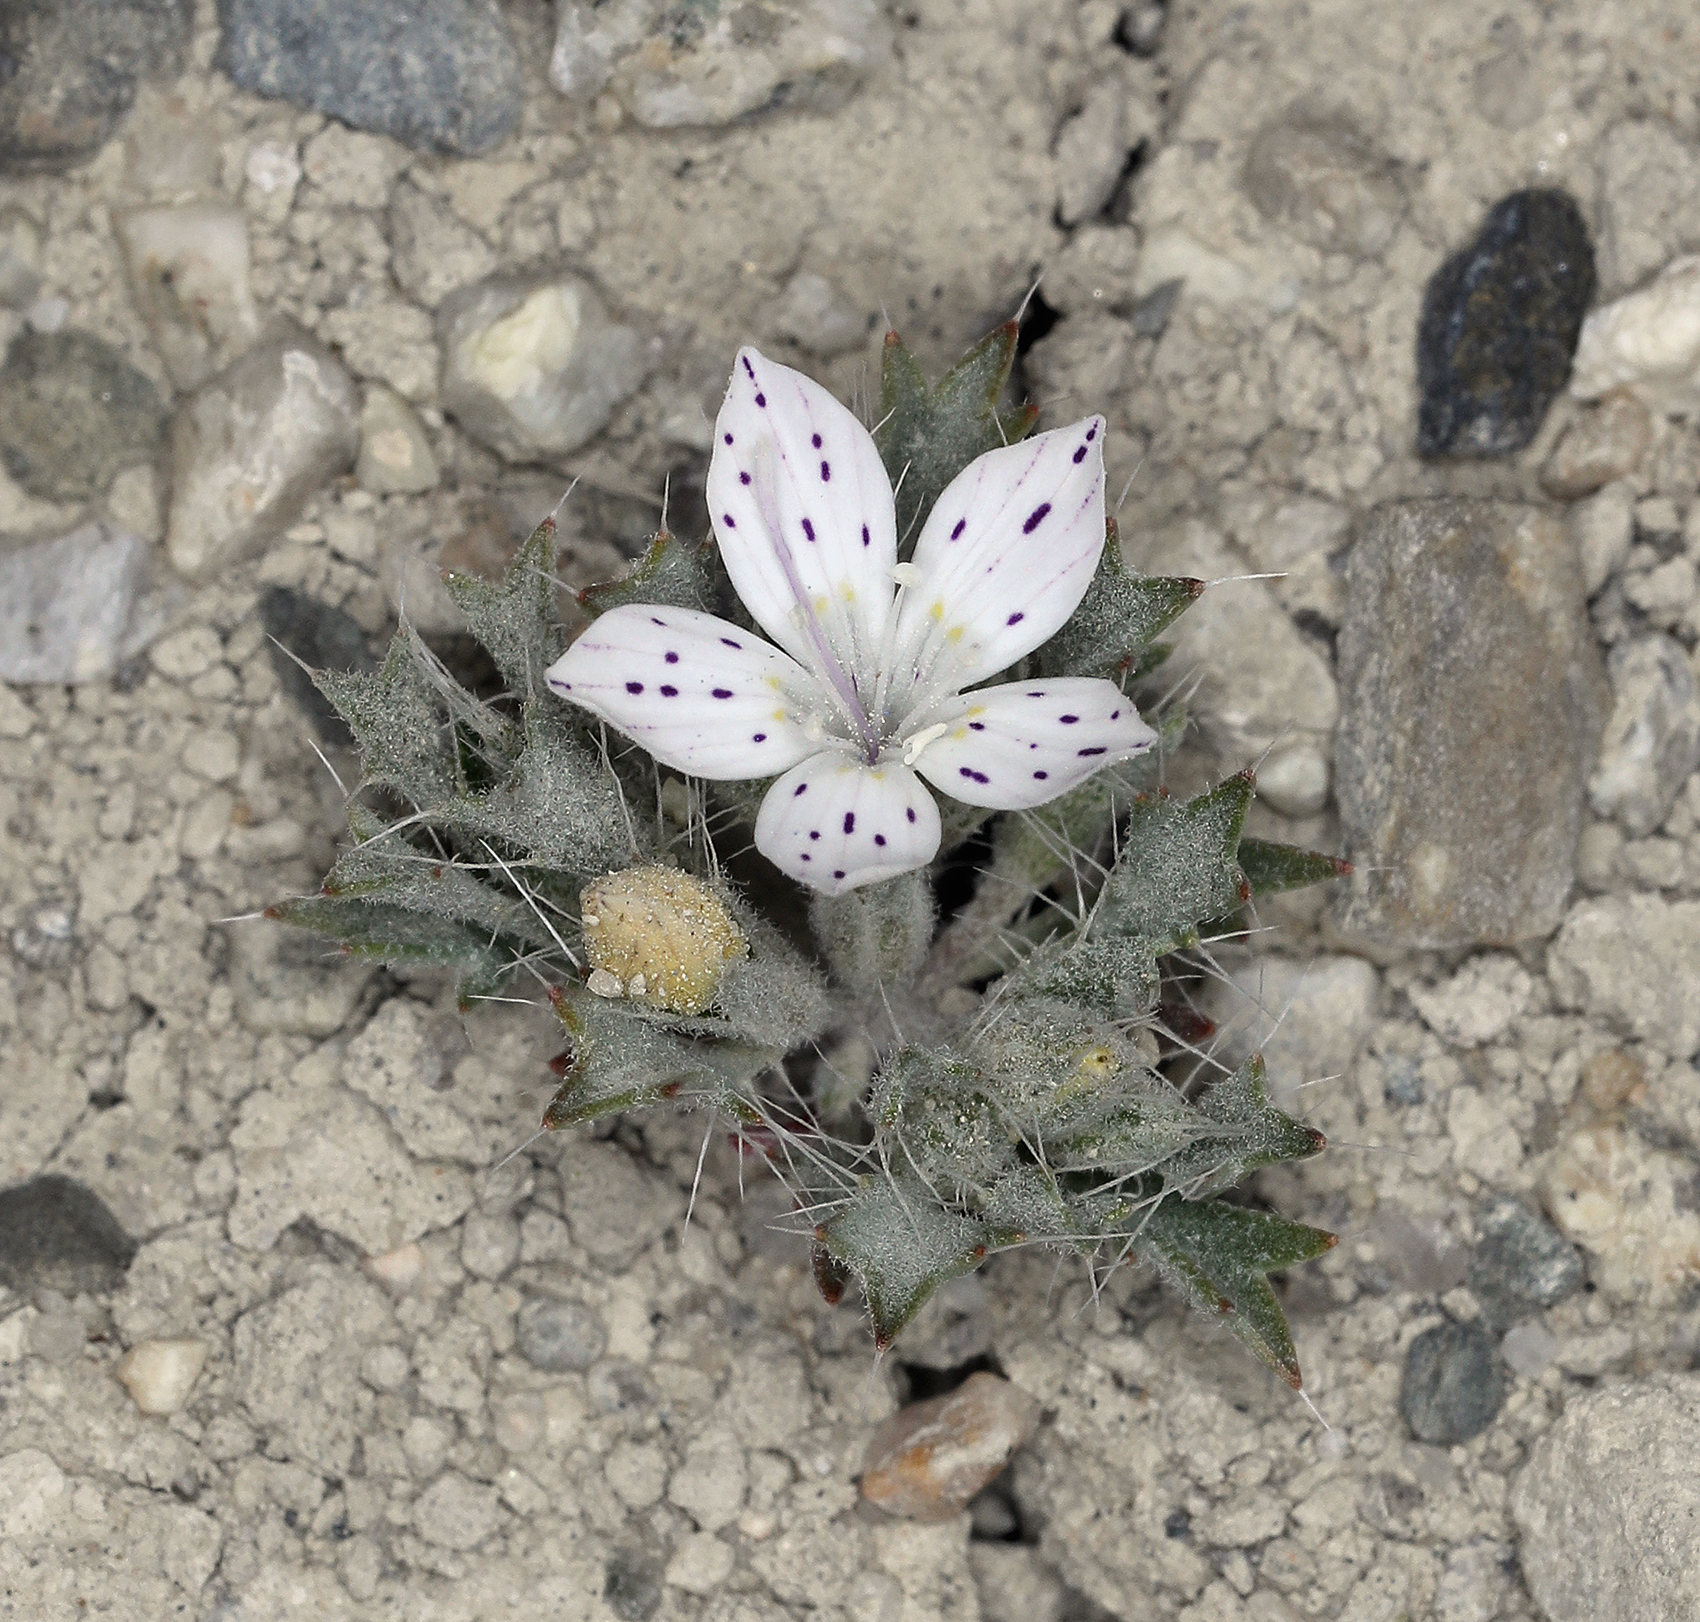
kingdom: Plantae
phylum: Tracheophyta
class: Magnoliopsida
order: Ericales
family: Polemoniaceae
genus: Langloisia
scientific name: Langloisia setosissima
